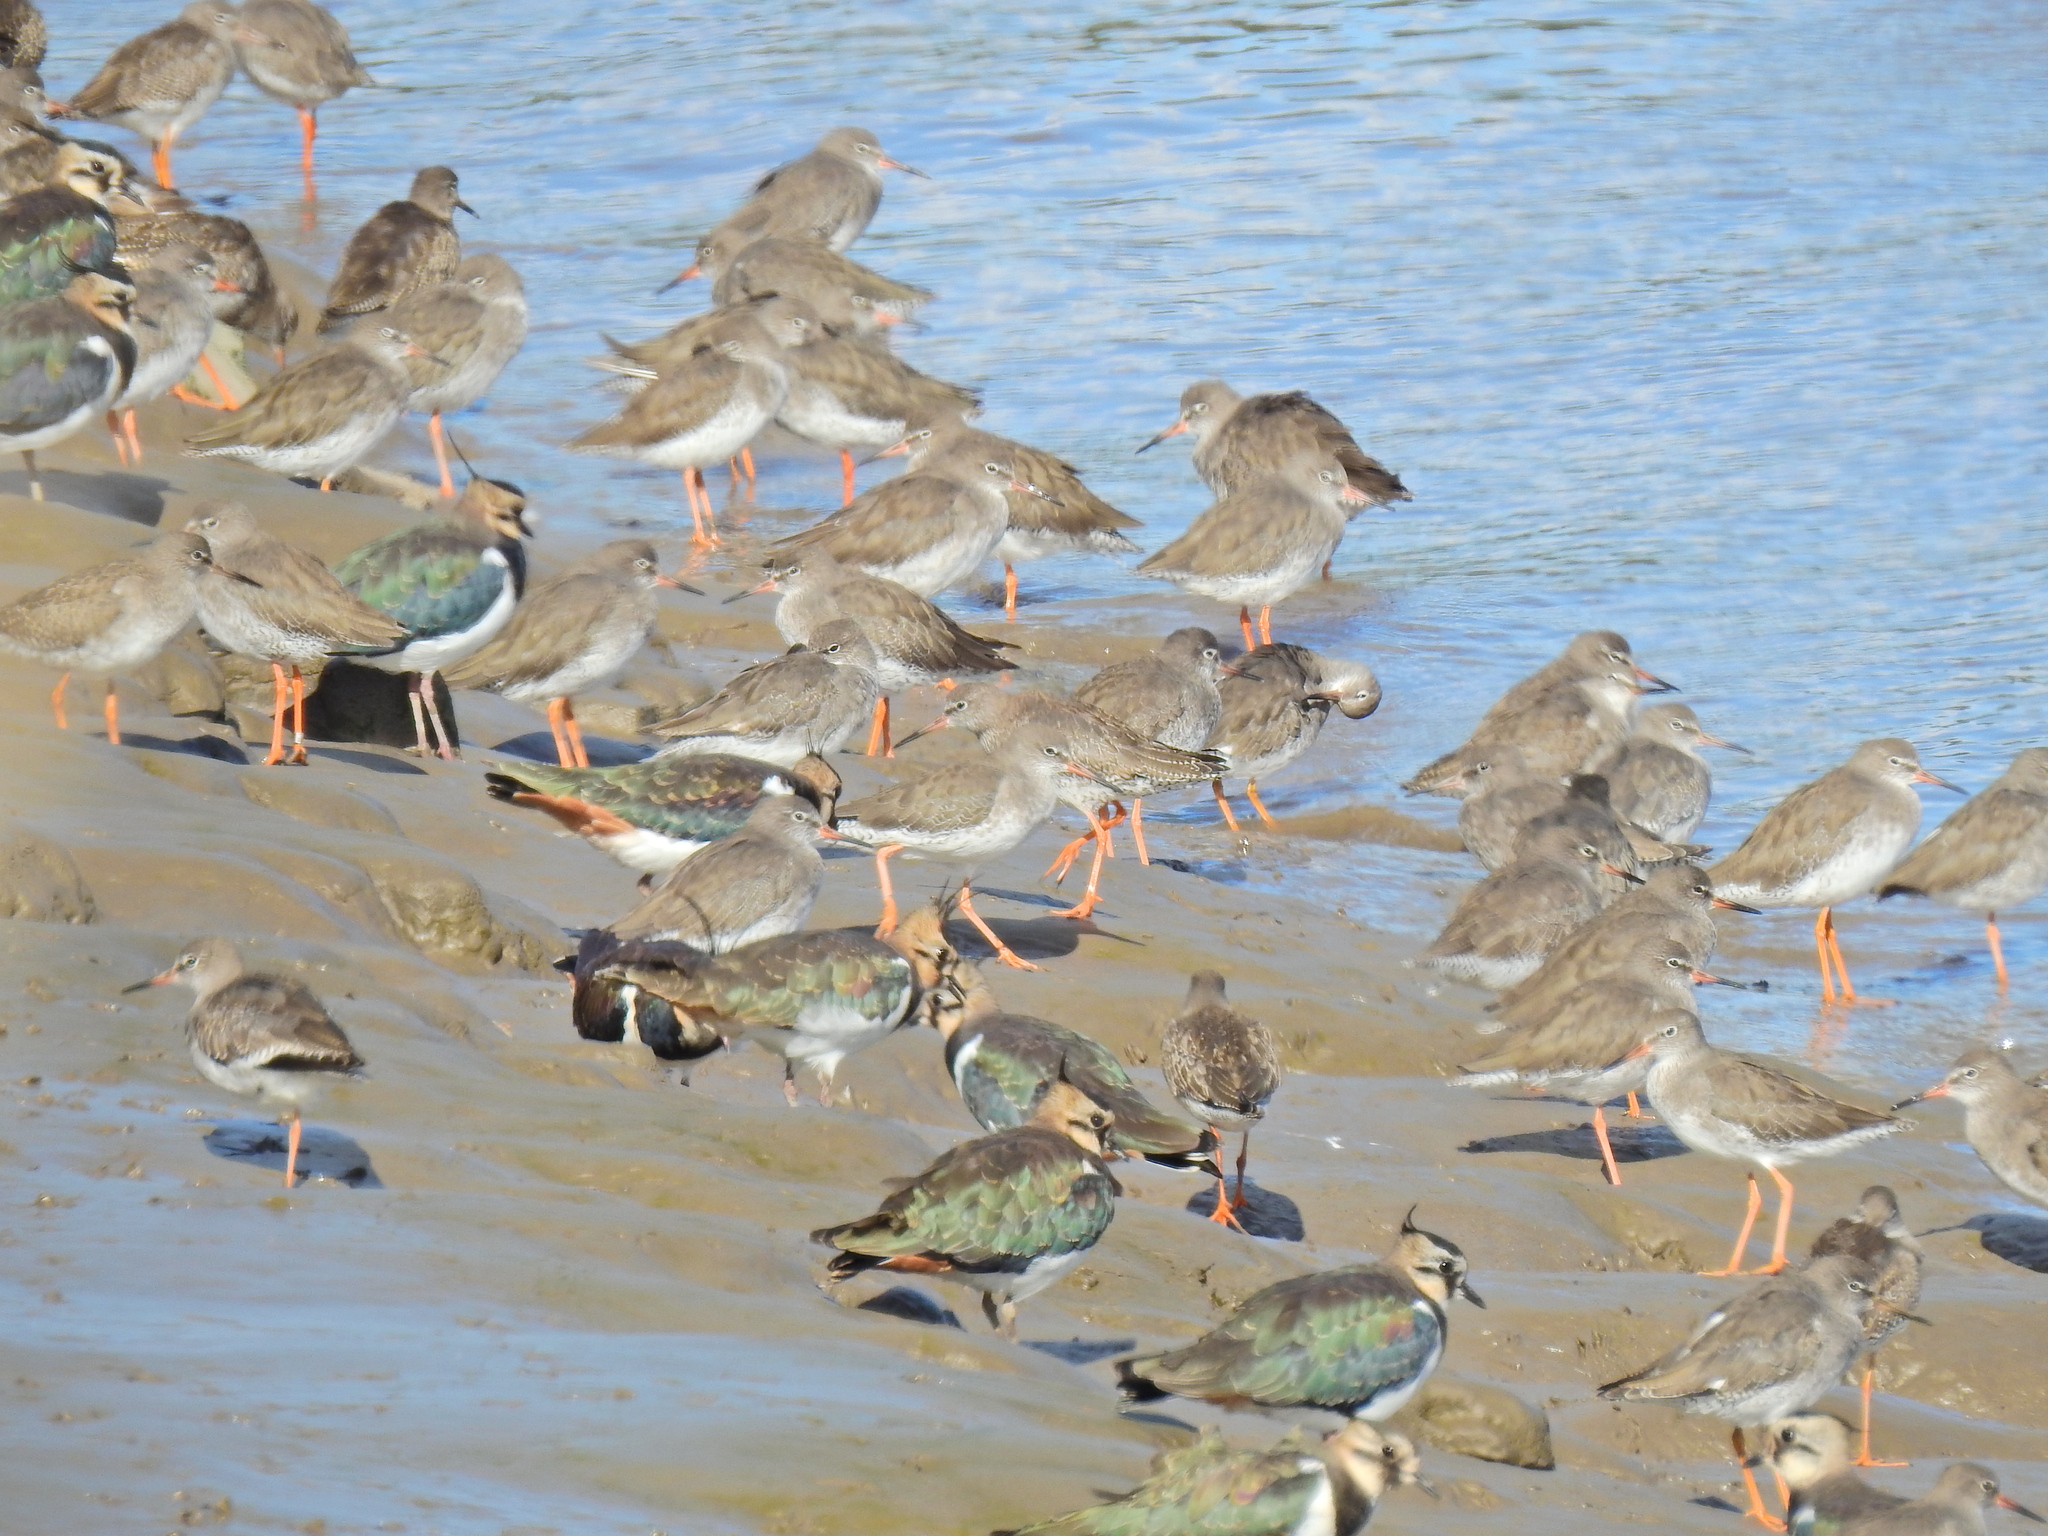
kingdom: Animalia
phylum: Chordata
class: Aves
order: Charadriiformes
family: Charadriidae
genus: Vanellus
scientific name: Vanellus vanellus
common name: Northern lapwing
